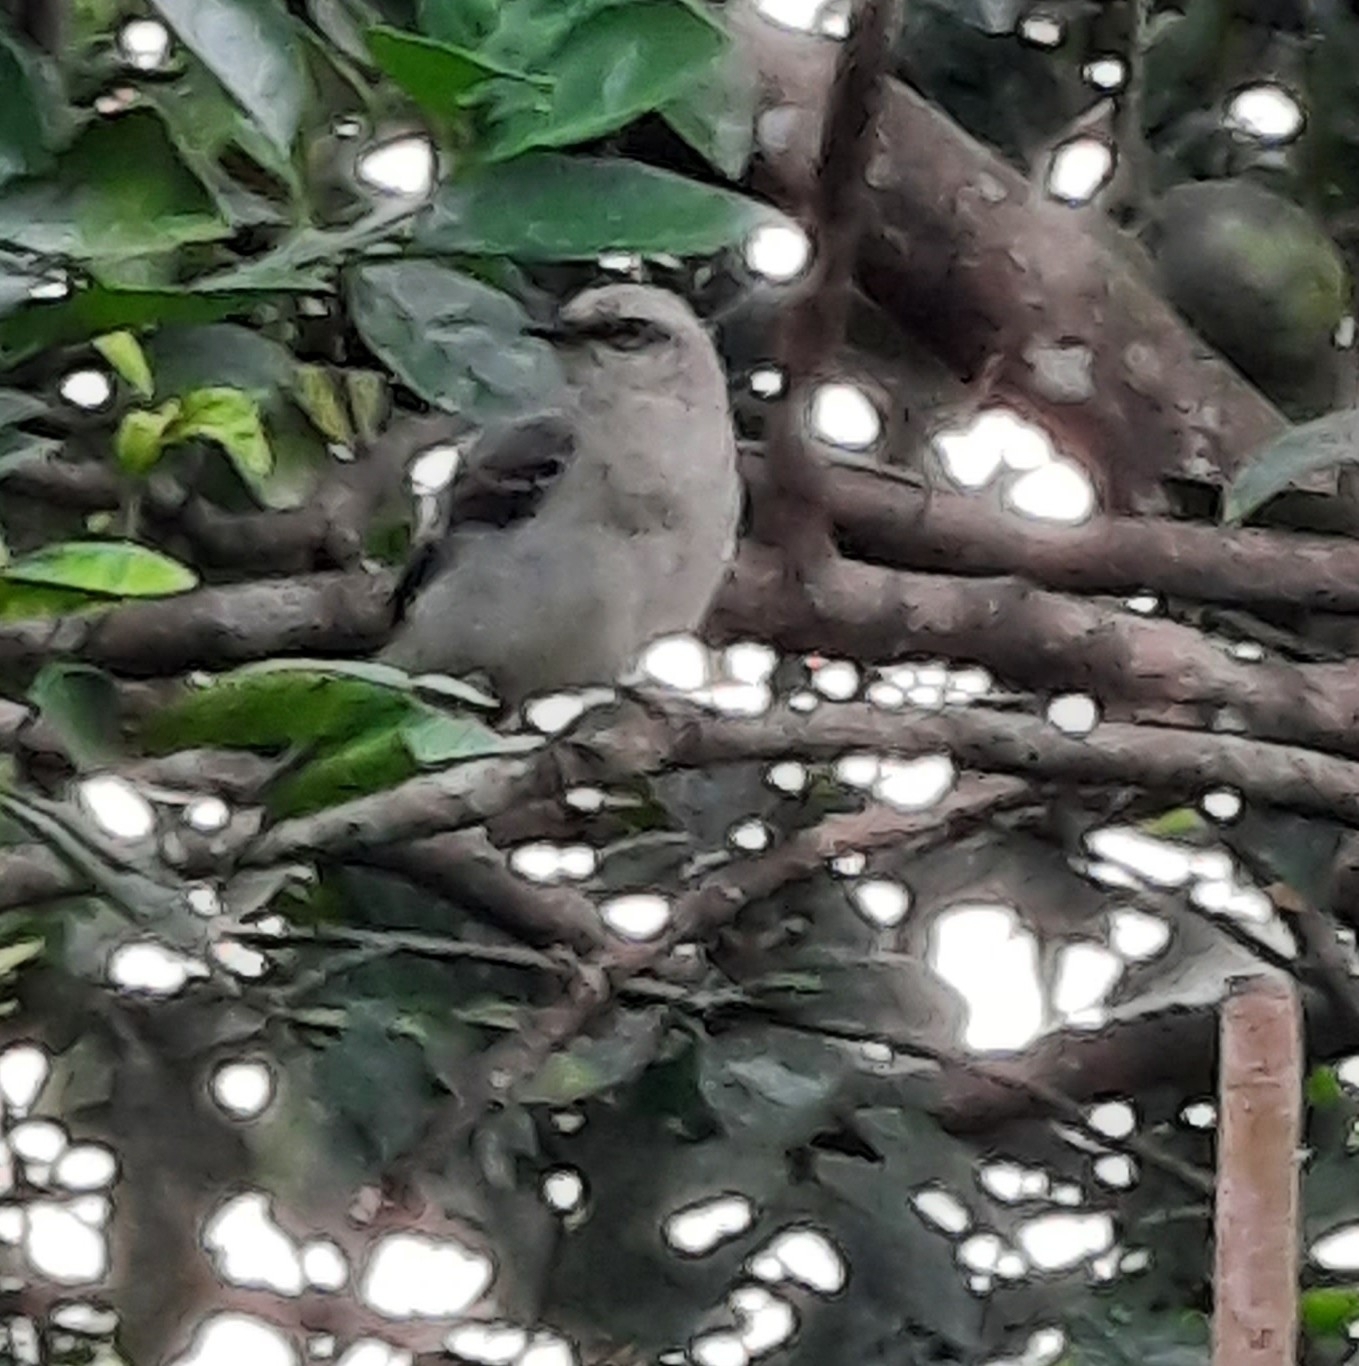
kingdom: Animalia
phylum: Chordata
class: Aves
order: Passeriformes
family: Mimidae
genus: Mimus
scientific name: Mimus gilvus
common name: Tropical mockingbird
